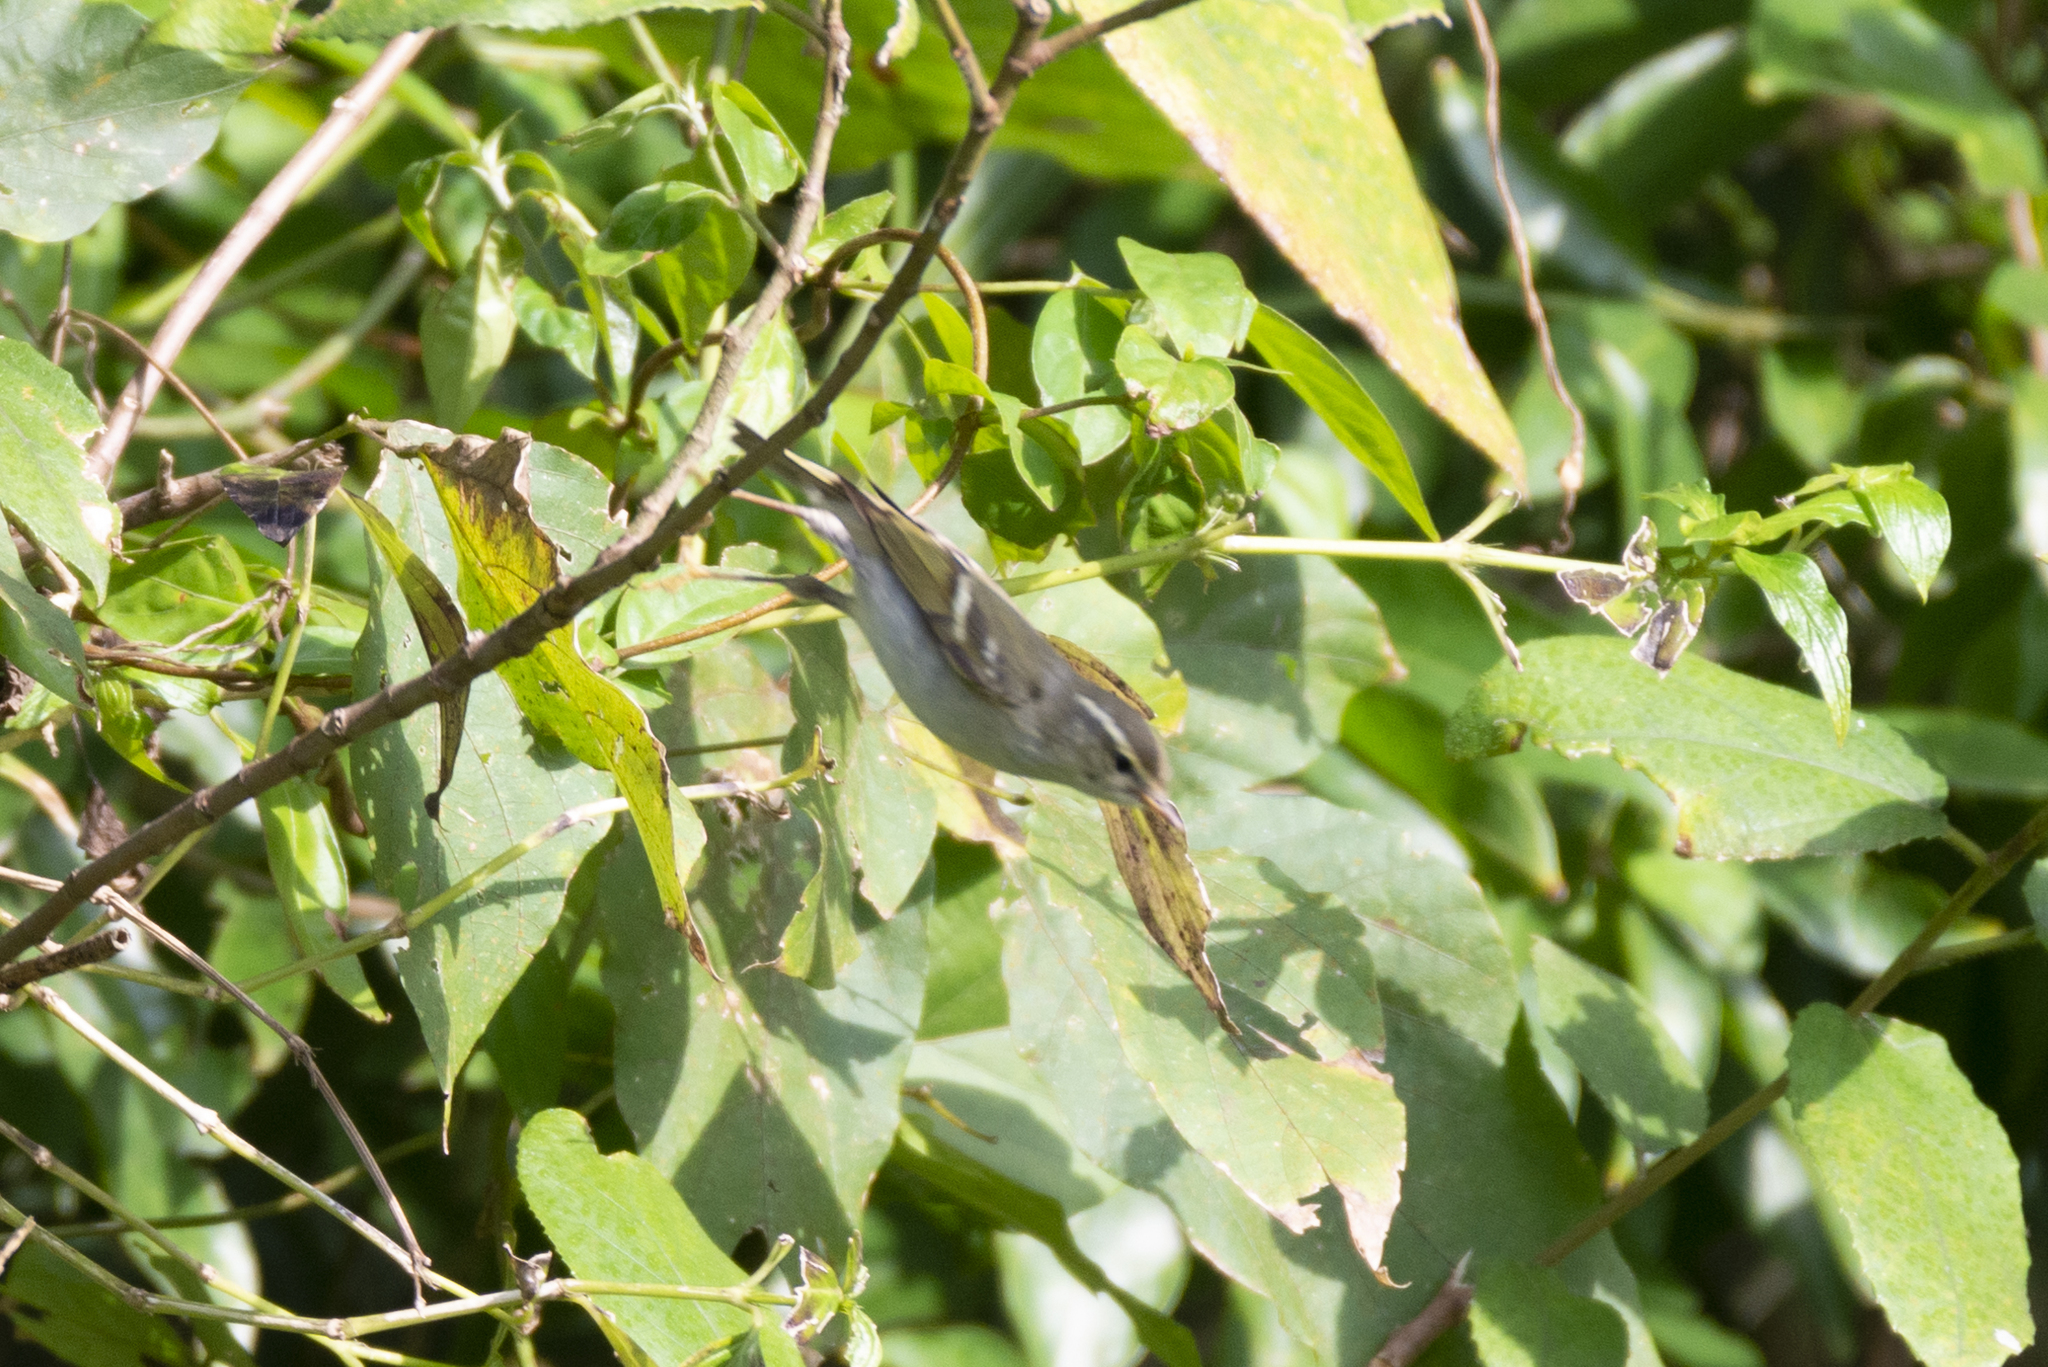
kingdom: Animalia
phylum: Chordata
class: Aves
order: Passeriformes
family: Phylloscopidae
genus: Phylloscopus
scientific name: Phylloscopus inornatus
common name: Yellow-browed warbler
